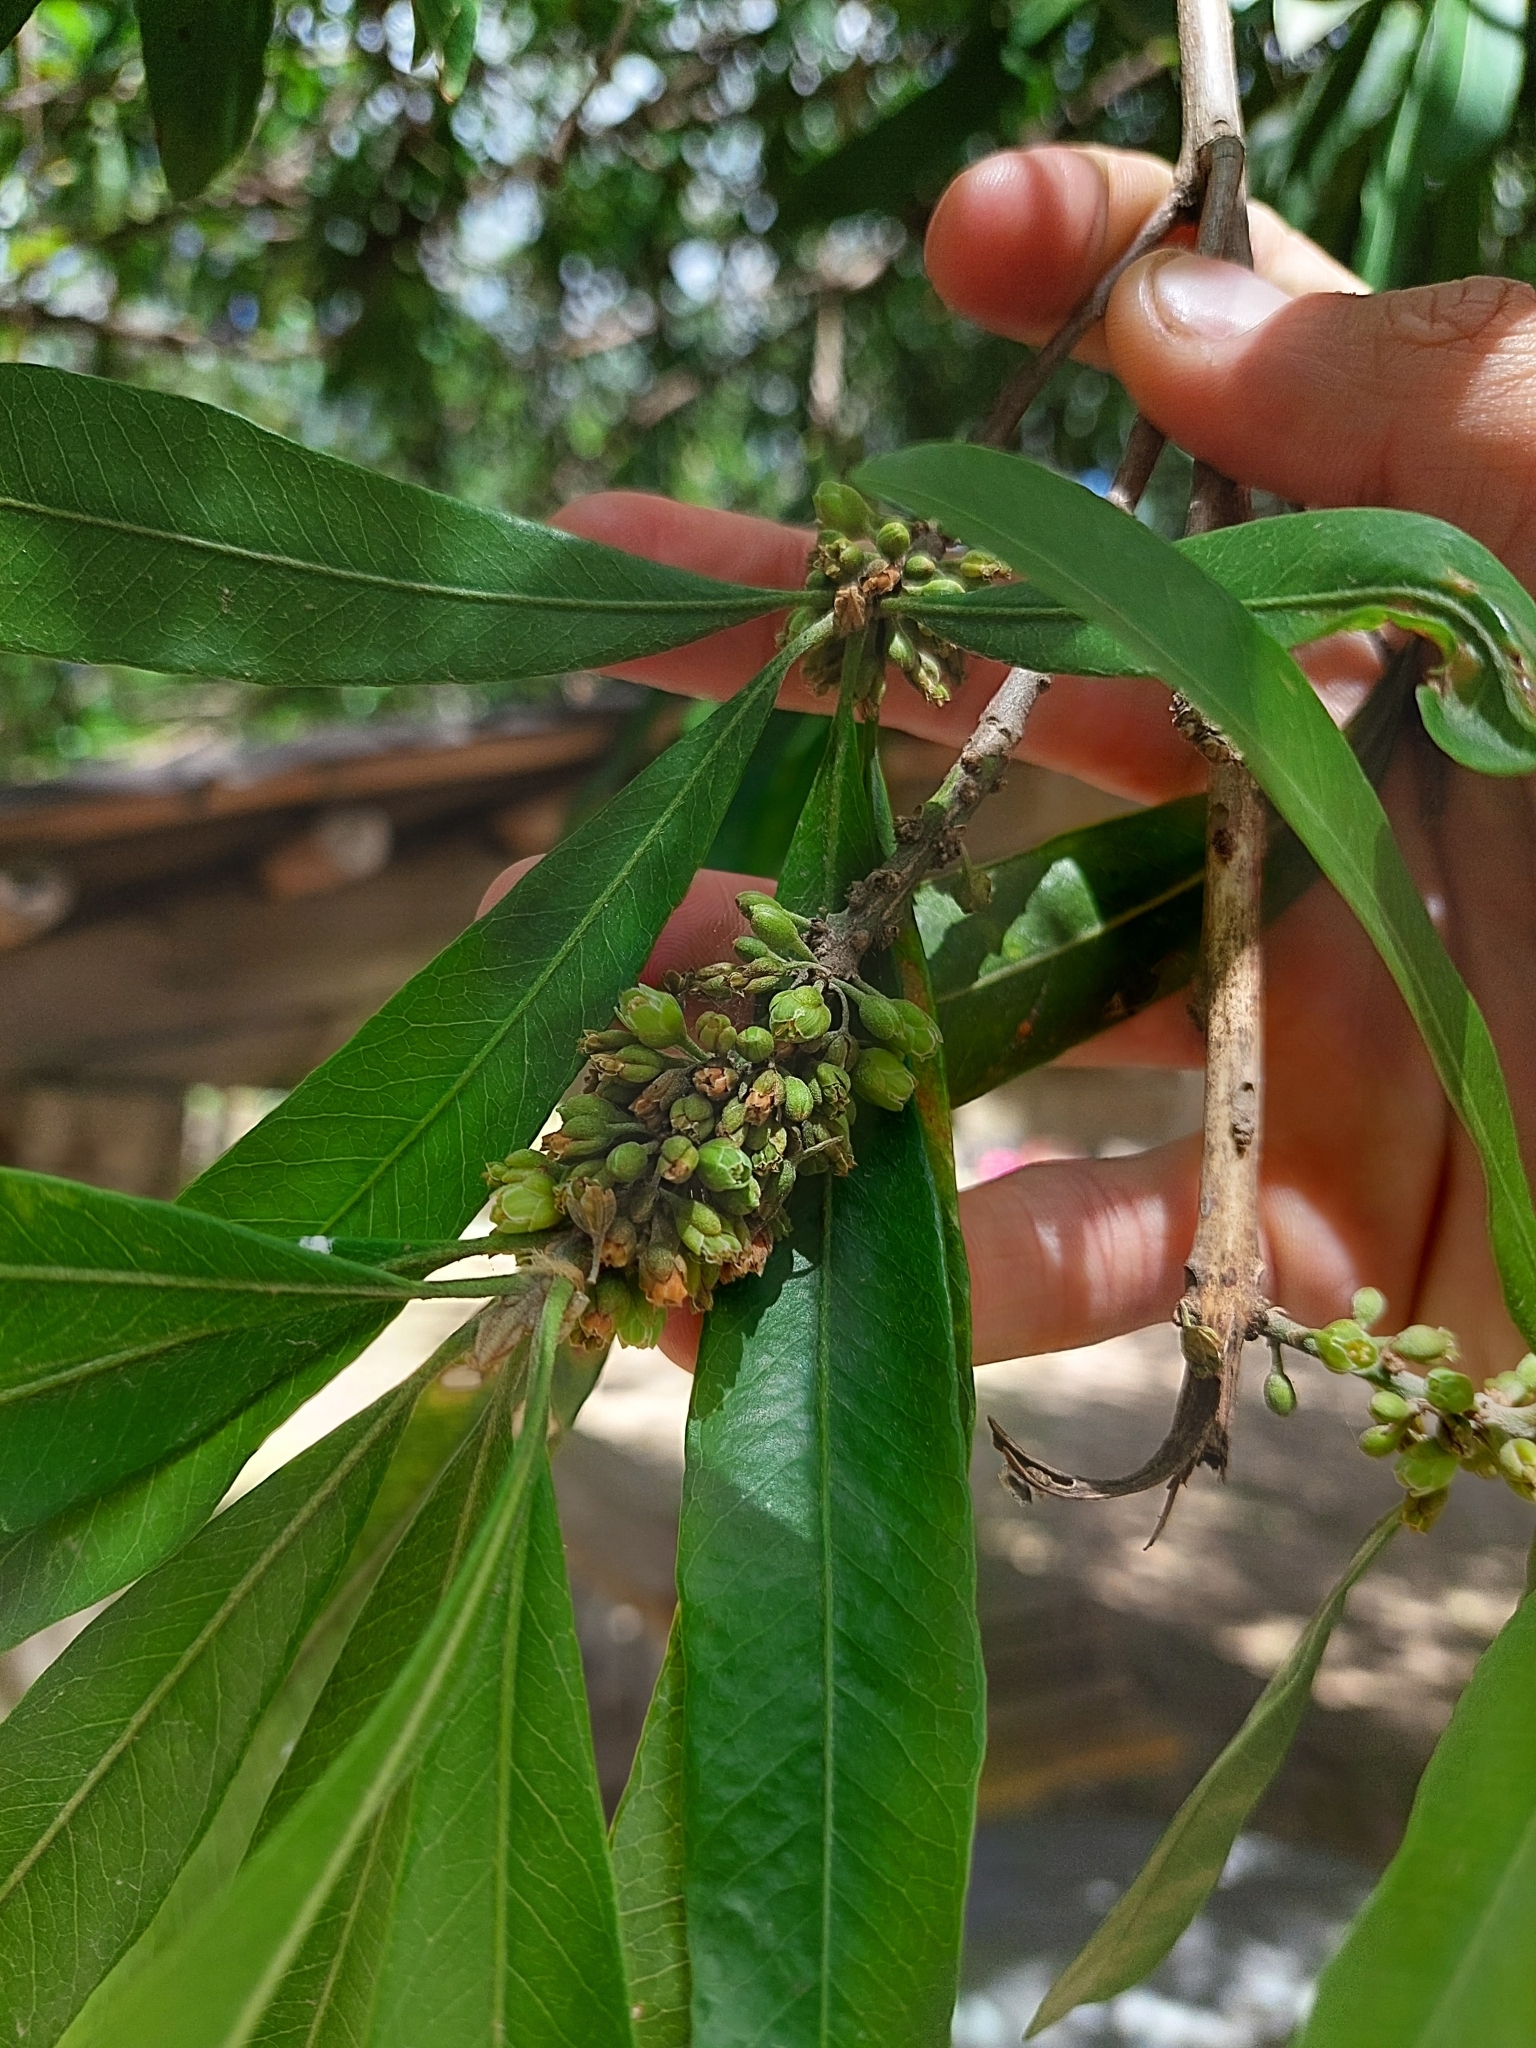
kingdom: Plantae
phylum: Tracheophyta
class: Magnoliopsida
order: Ericales
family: Sapotaceae
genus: Pouteria
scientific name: Pouteria gardneriana
